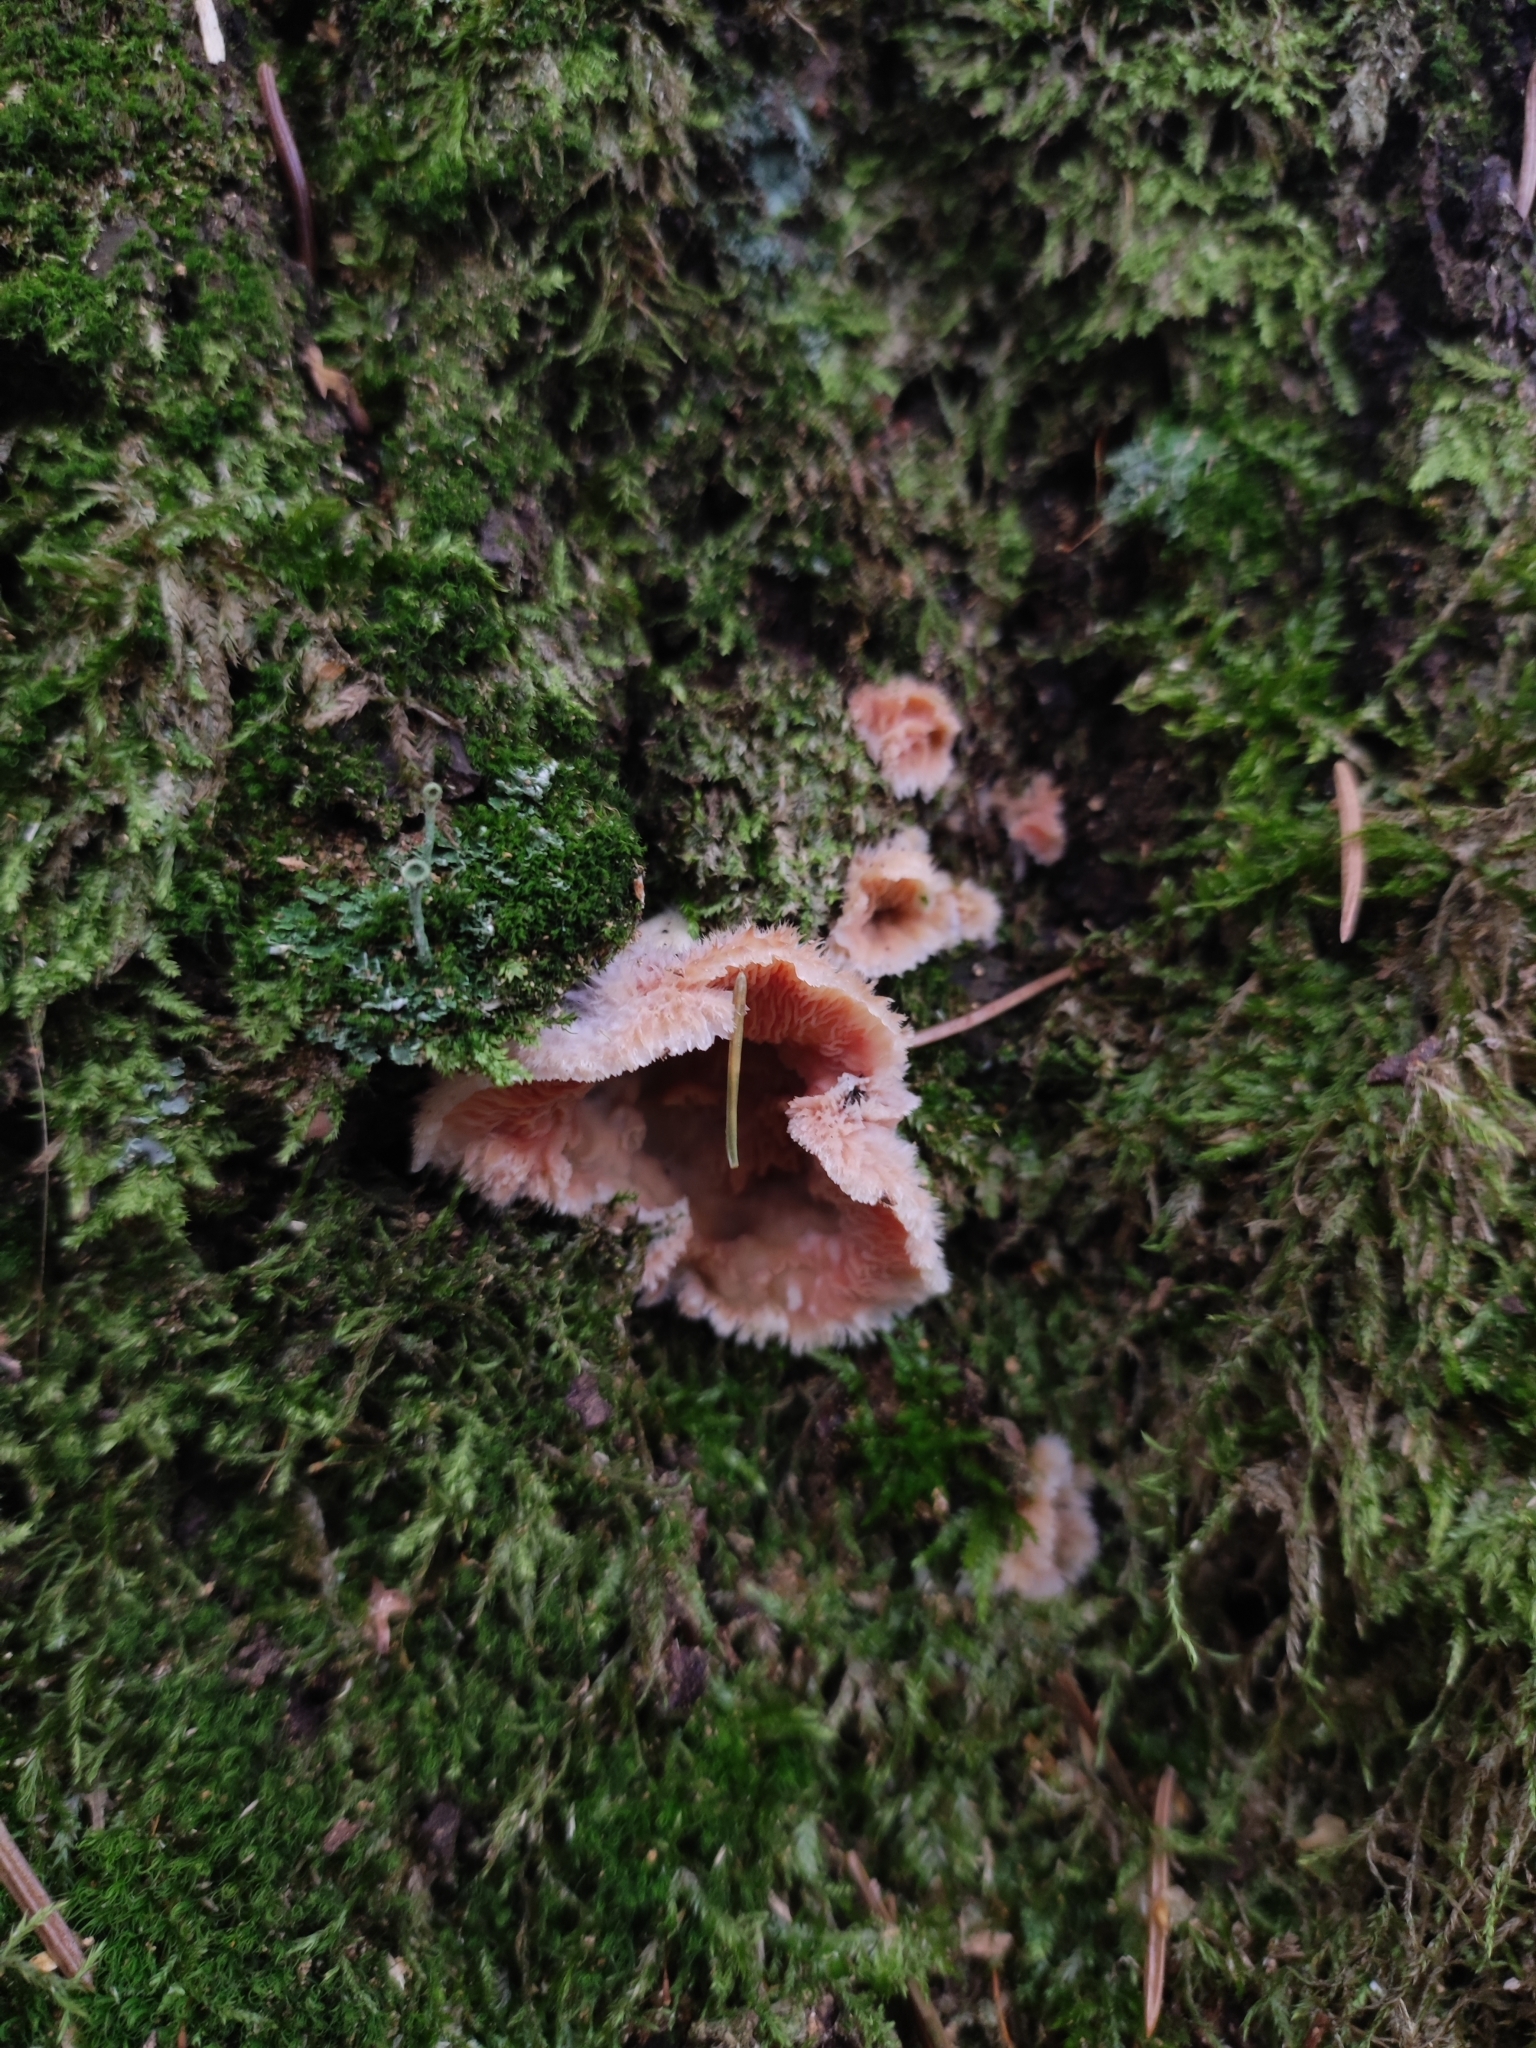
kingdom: Fungi
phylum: Basidiomycota
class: Agaricomycetes
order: Polyporales
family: Meruliaceae
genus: Phlebia
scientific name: Phlebia tremellosa
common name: Jelly rot
